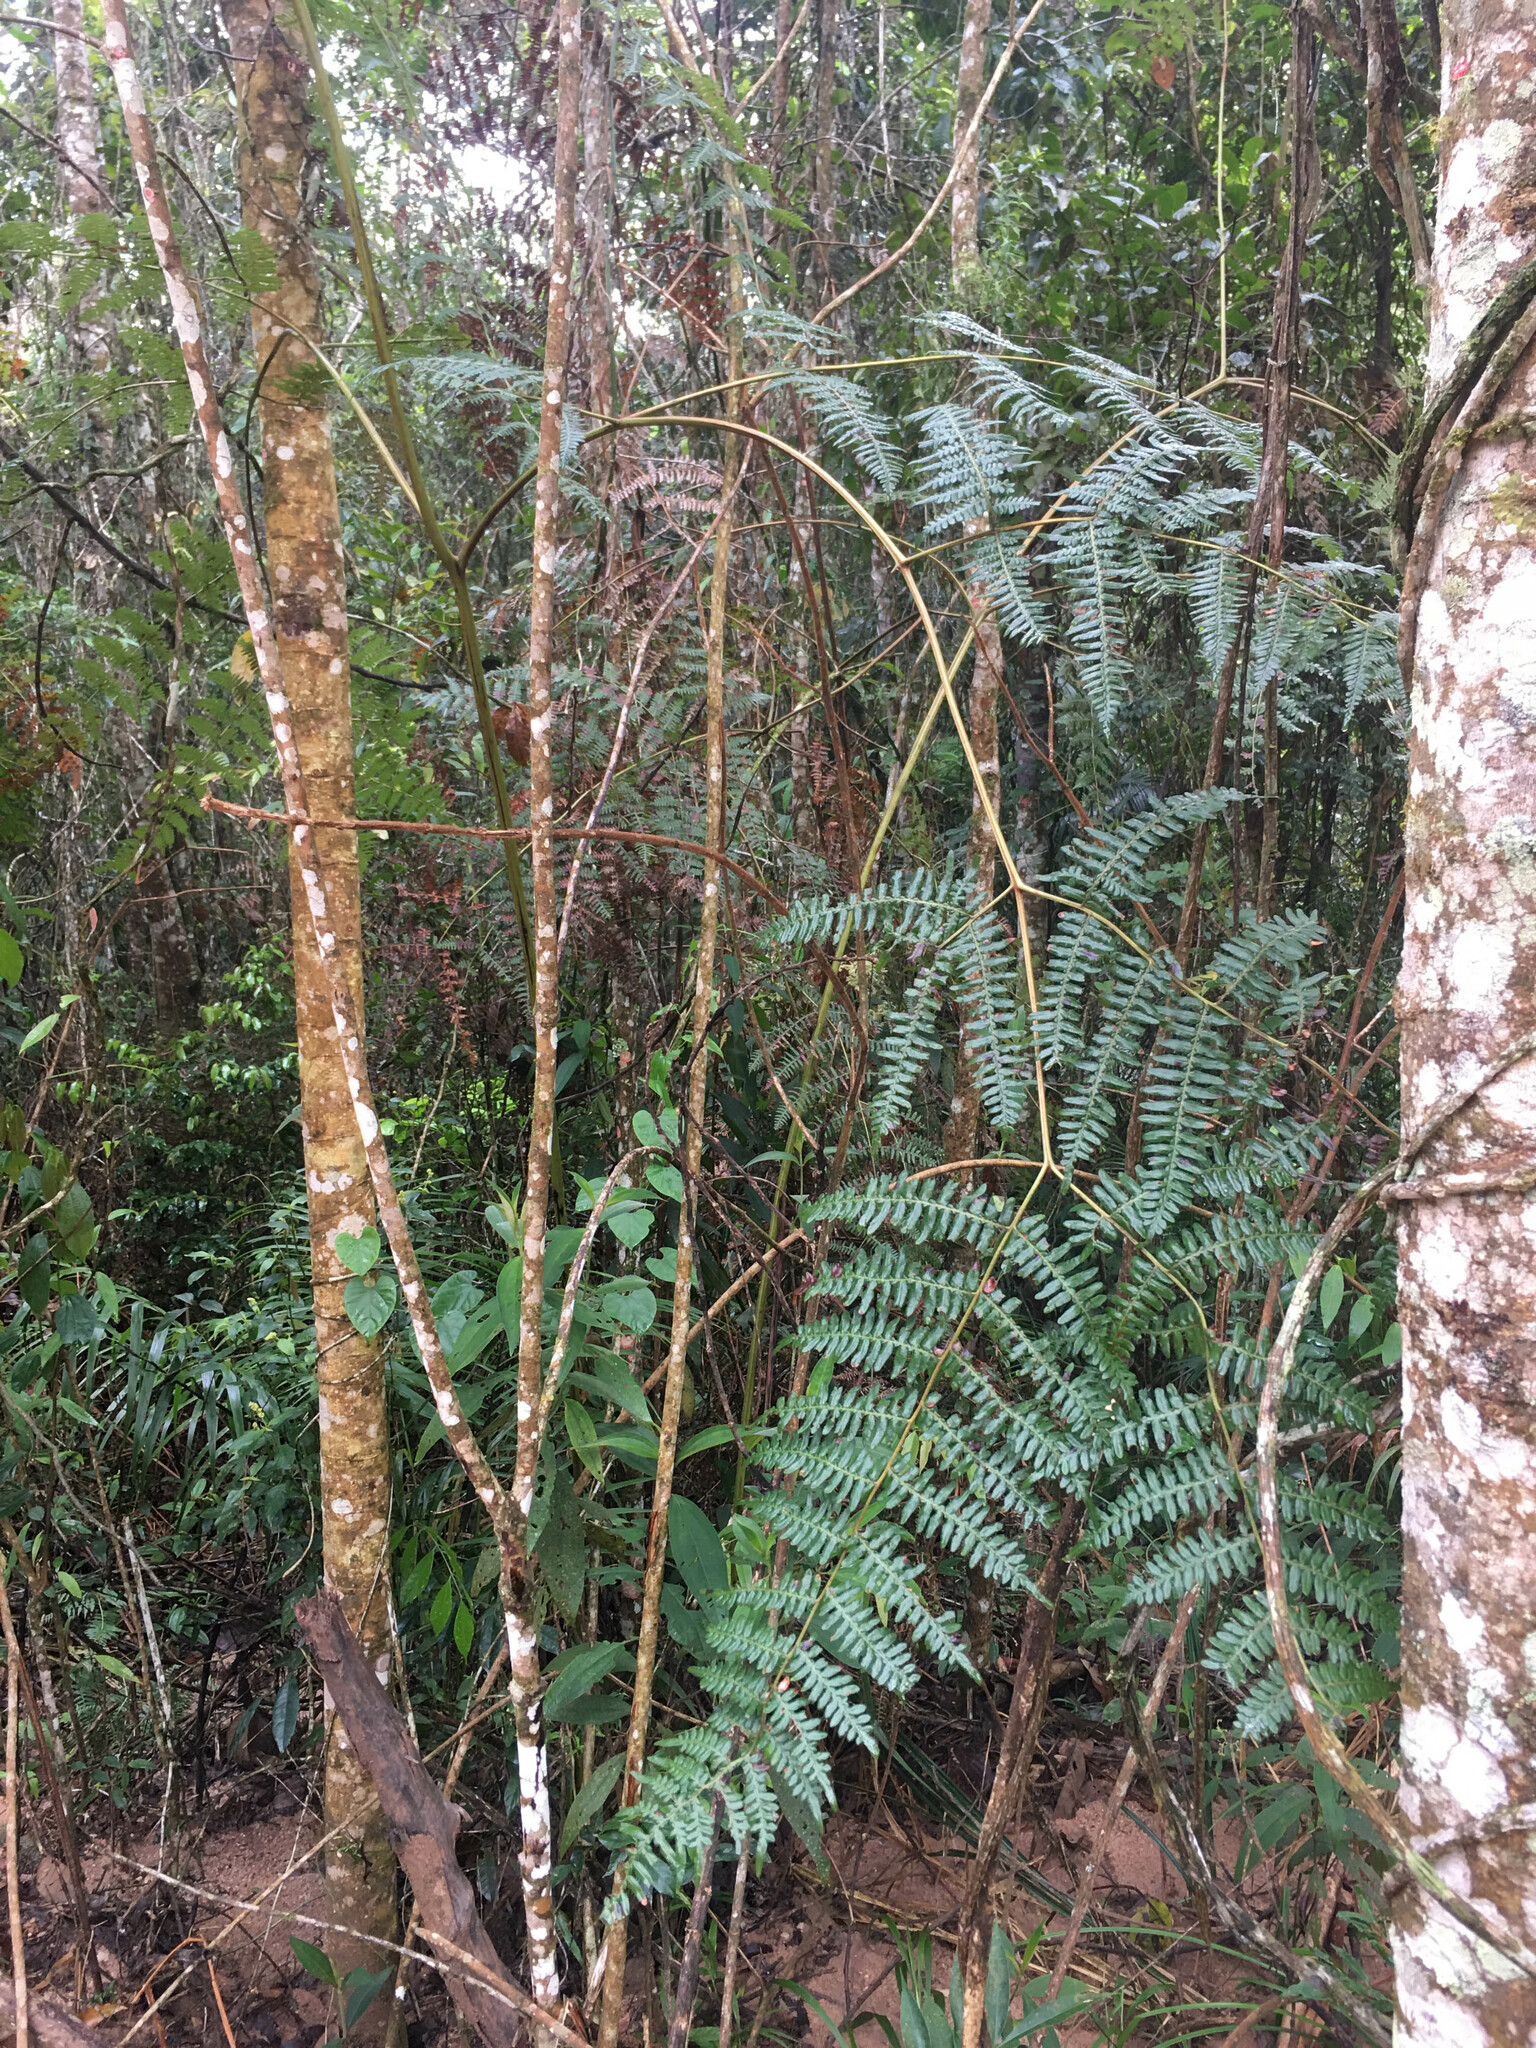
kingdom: Plantae
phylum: Tracheophyta
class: Polypodiopsida
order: Polypodiales
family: Dennstaedtiaceae
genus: Pteridium
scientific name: Pteridium esculentum
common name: Bracken fern
